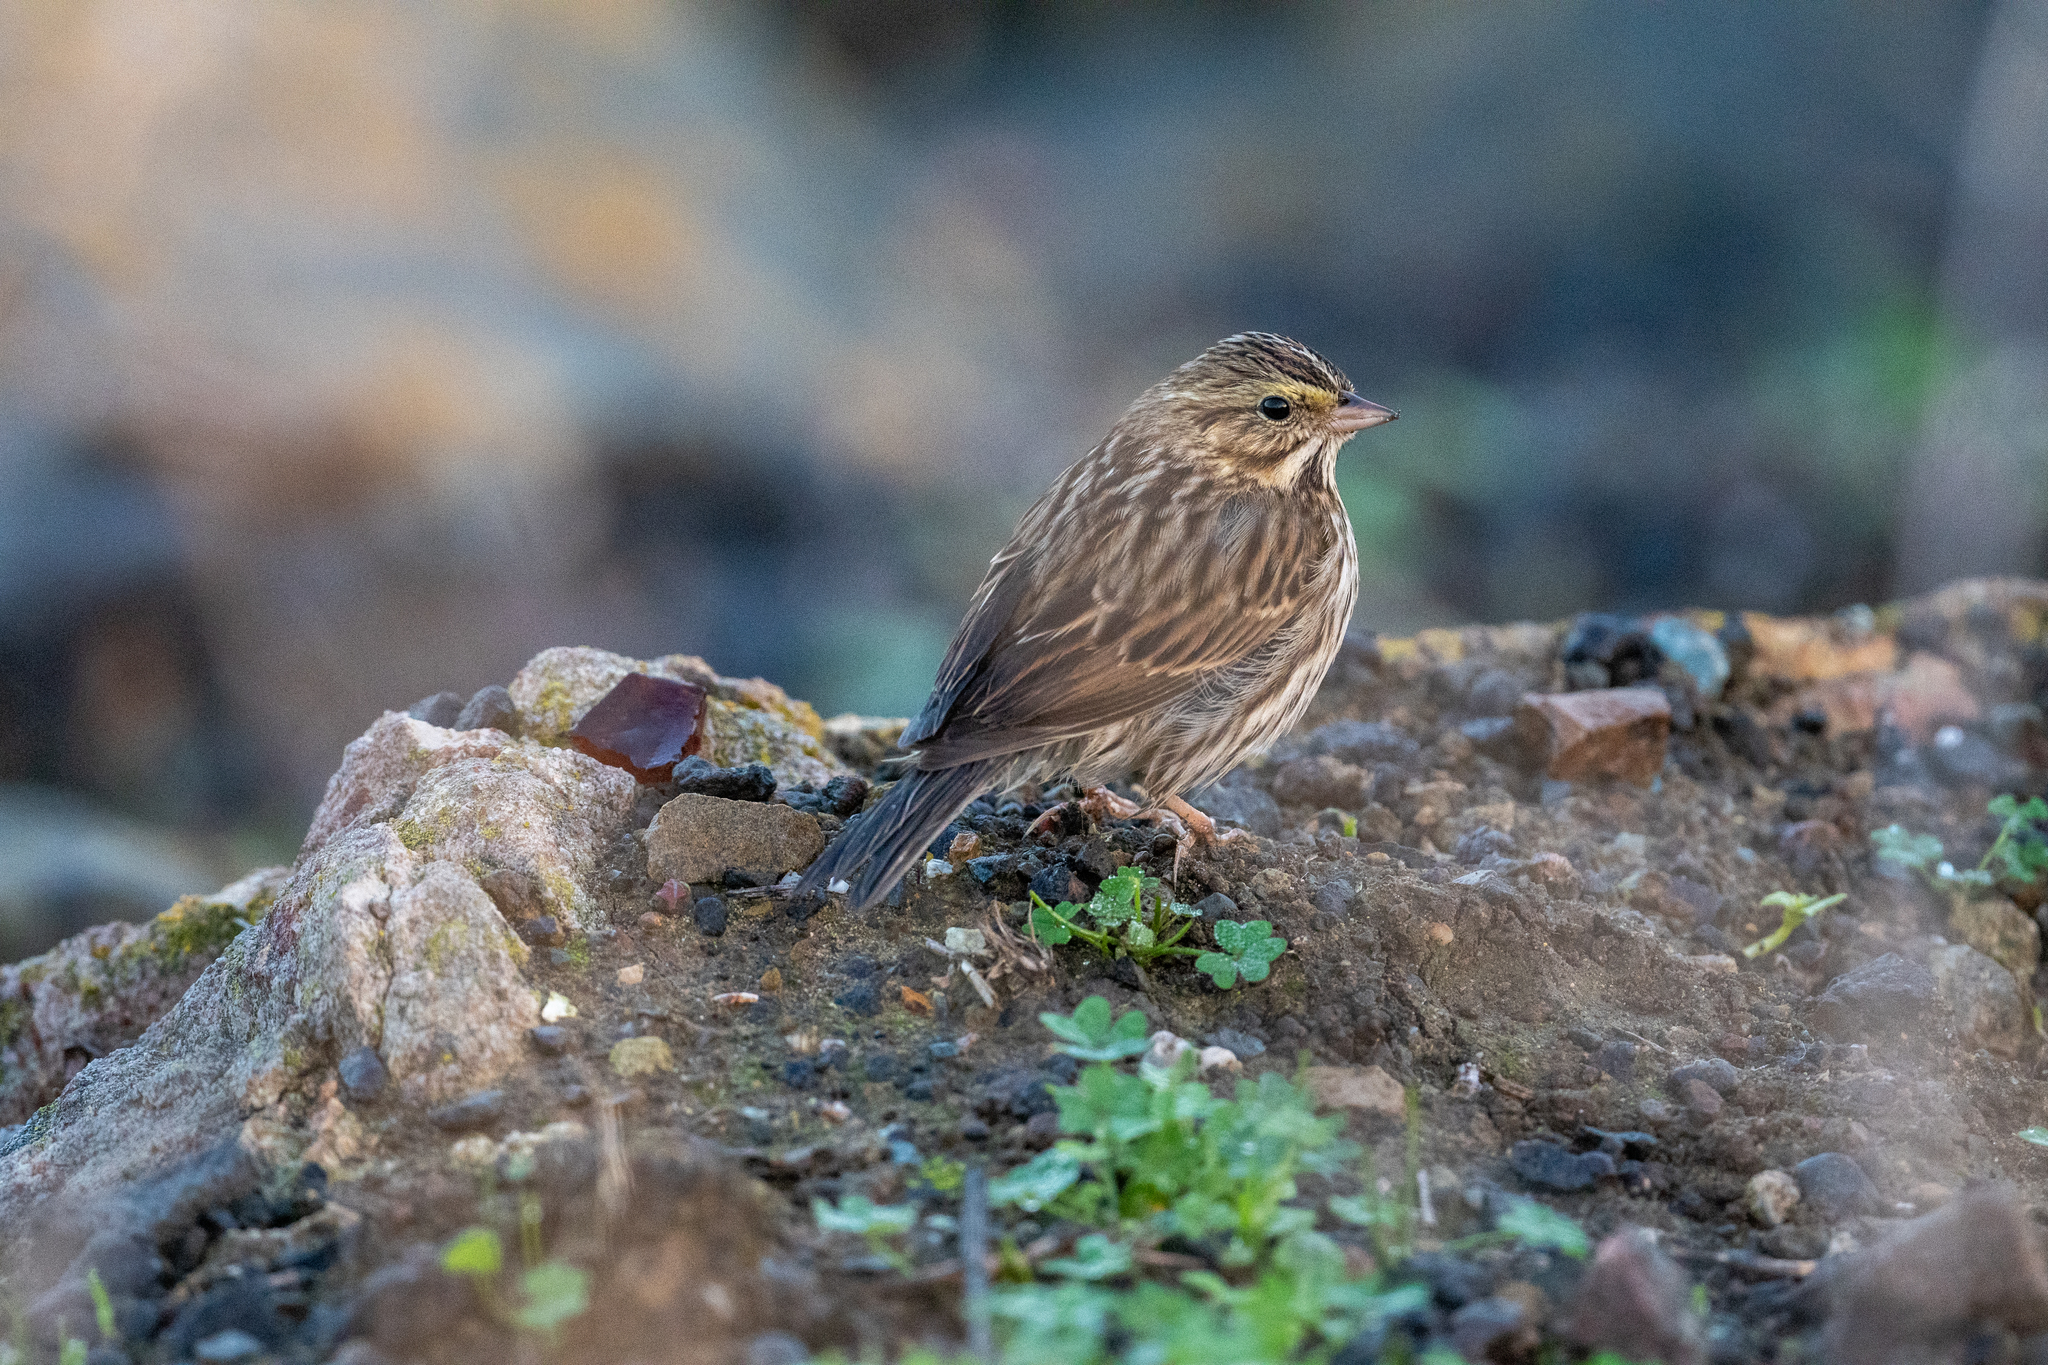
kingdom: Animalia
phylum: Chordata
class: Aves
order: Passeriformes
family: Passerellidae
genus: Passerculus
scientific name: Passerculus sandwichensis
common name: Savannah sparrow
